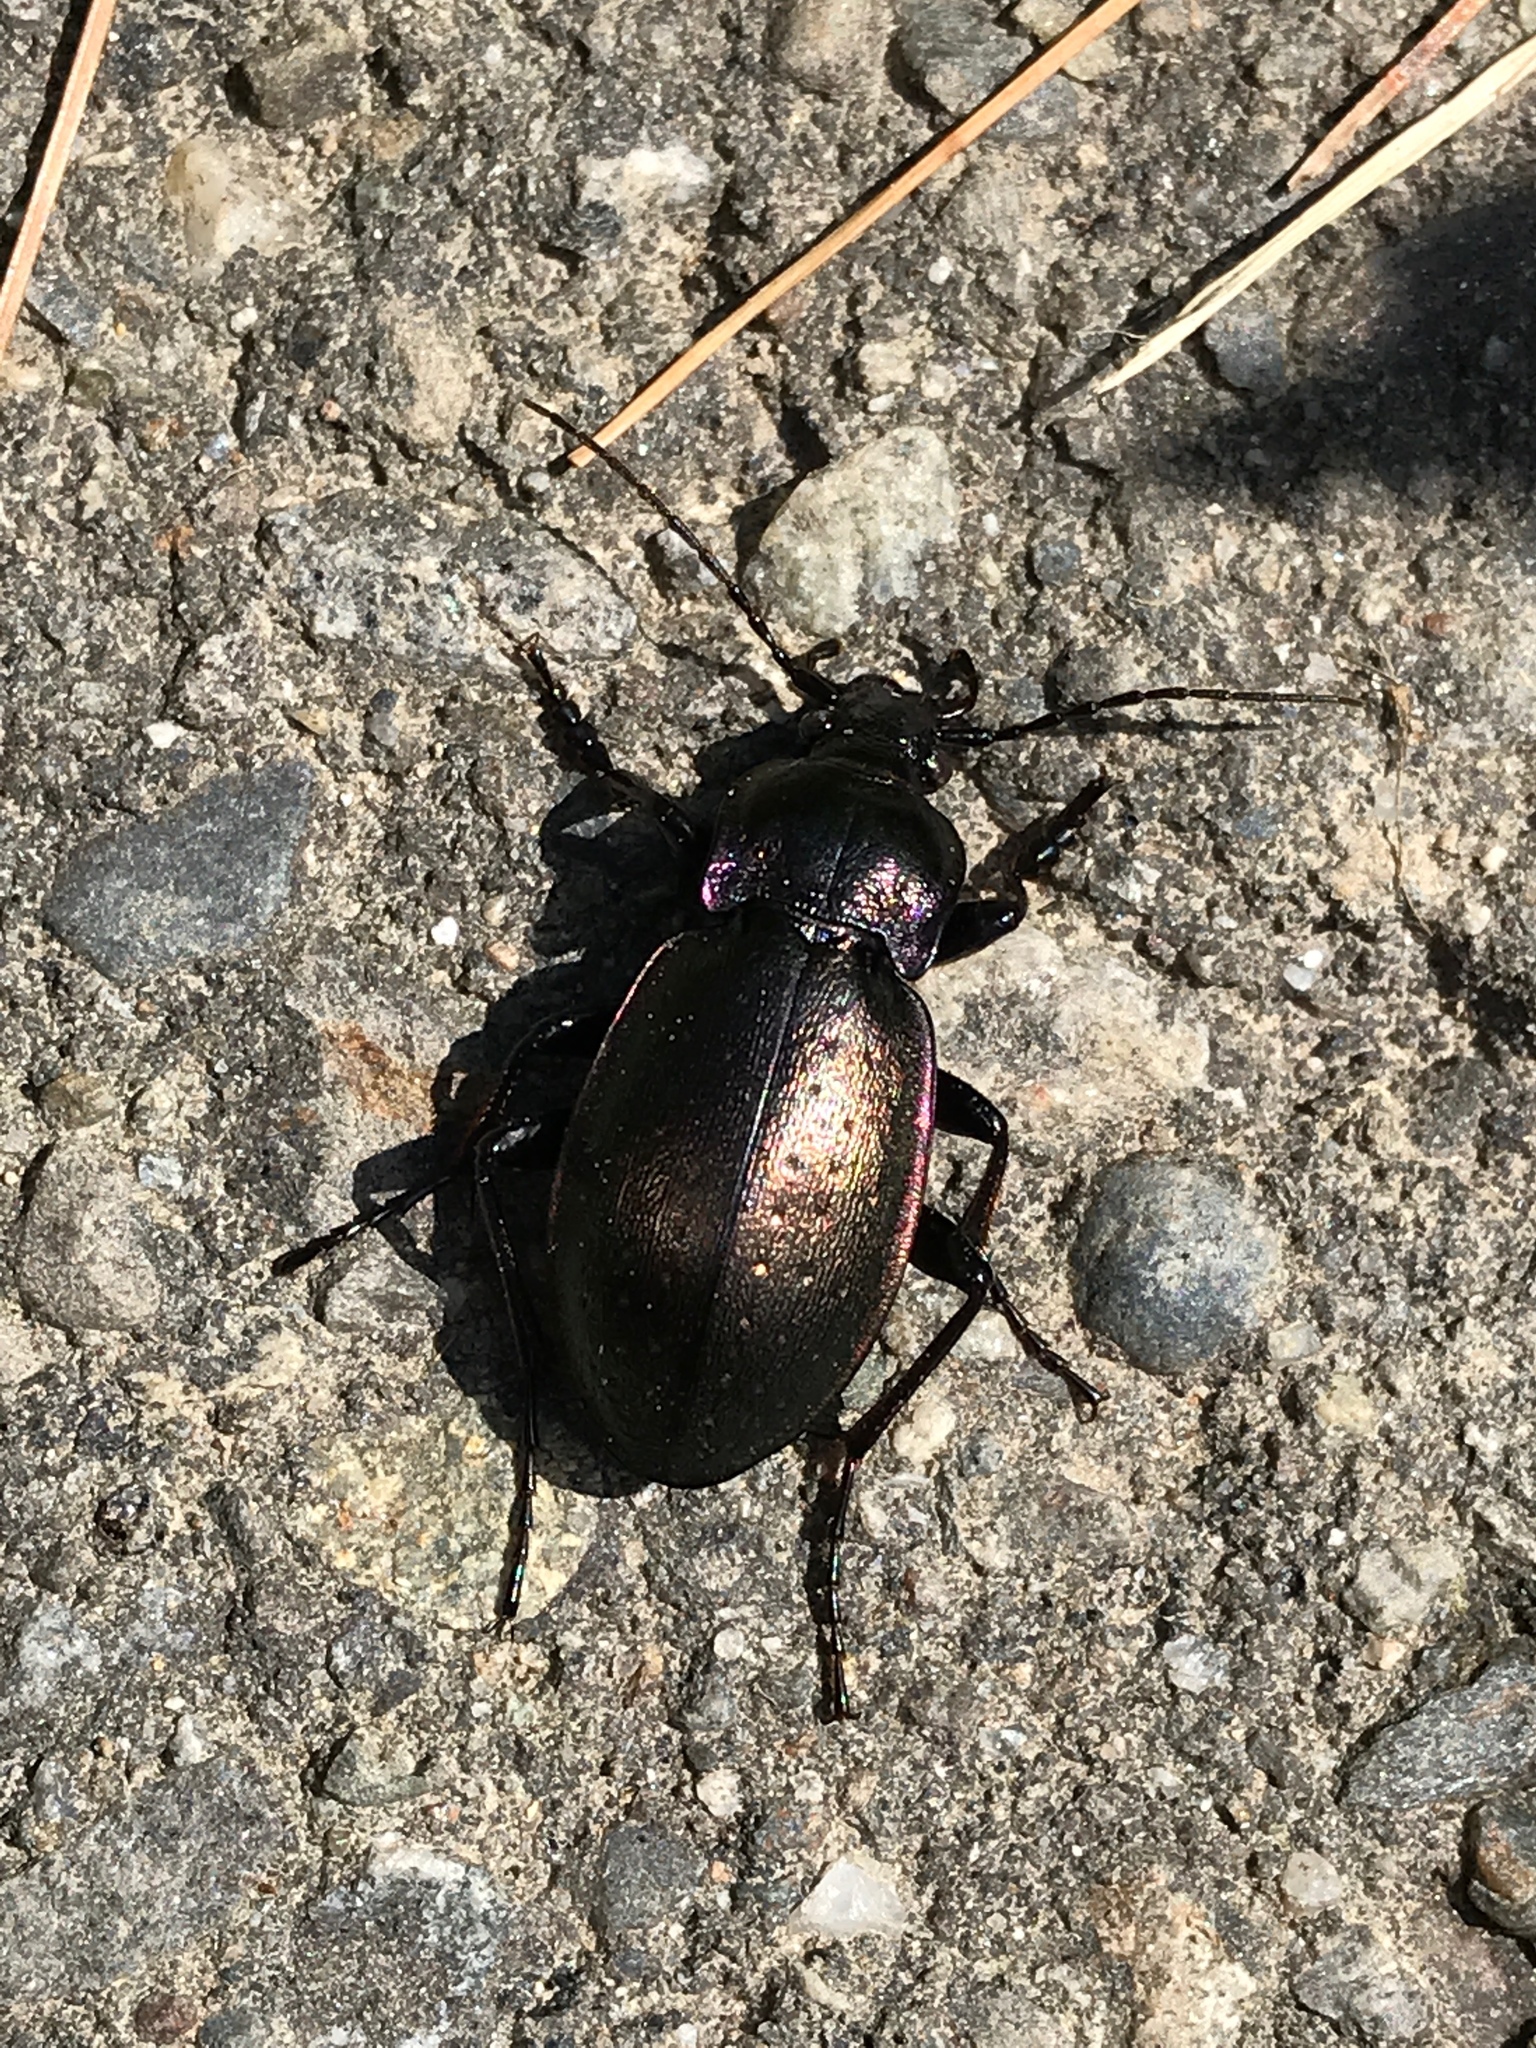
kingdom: Animalia
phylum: Arthropoda
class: Insecta
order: Coleoptera
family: Carabidae
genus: Carabus
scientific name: Carabus nemoralis
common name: European ground beetle
